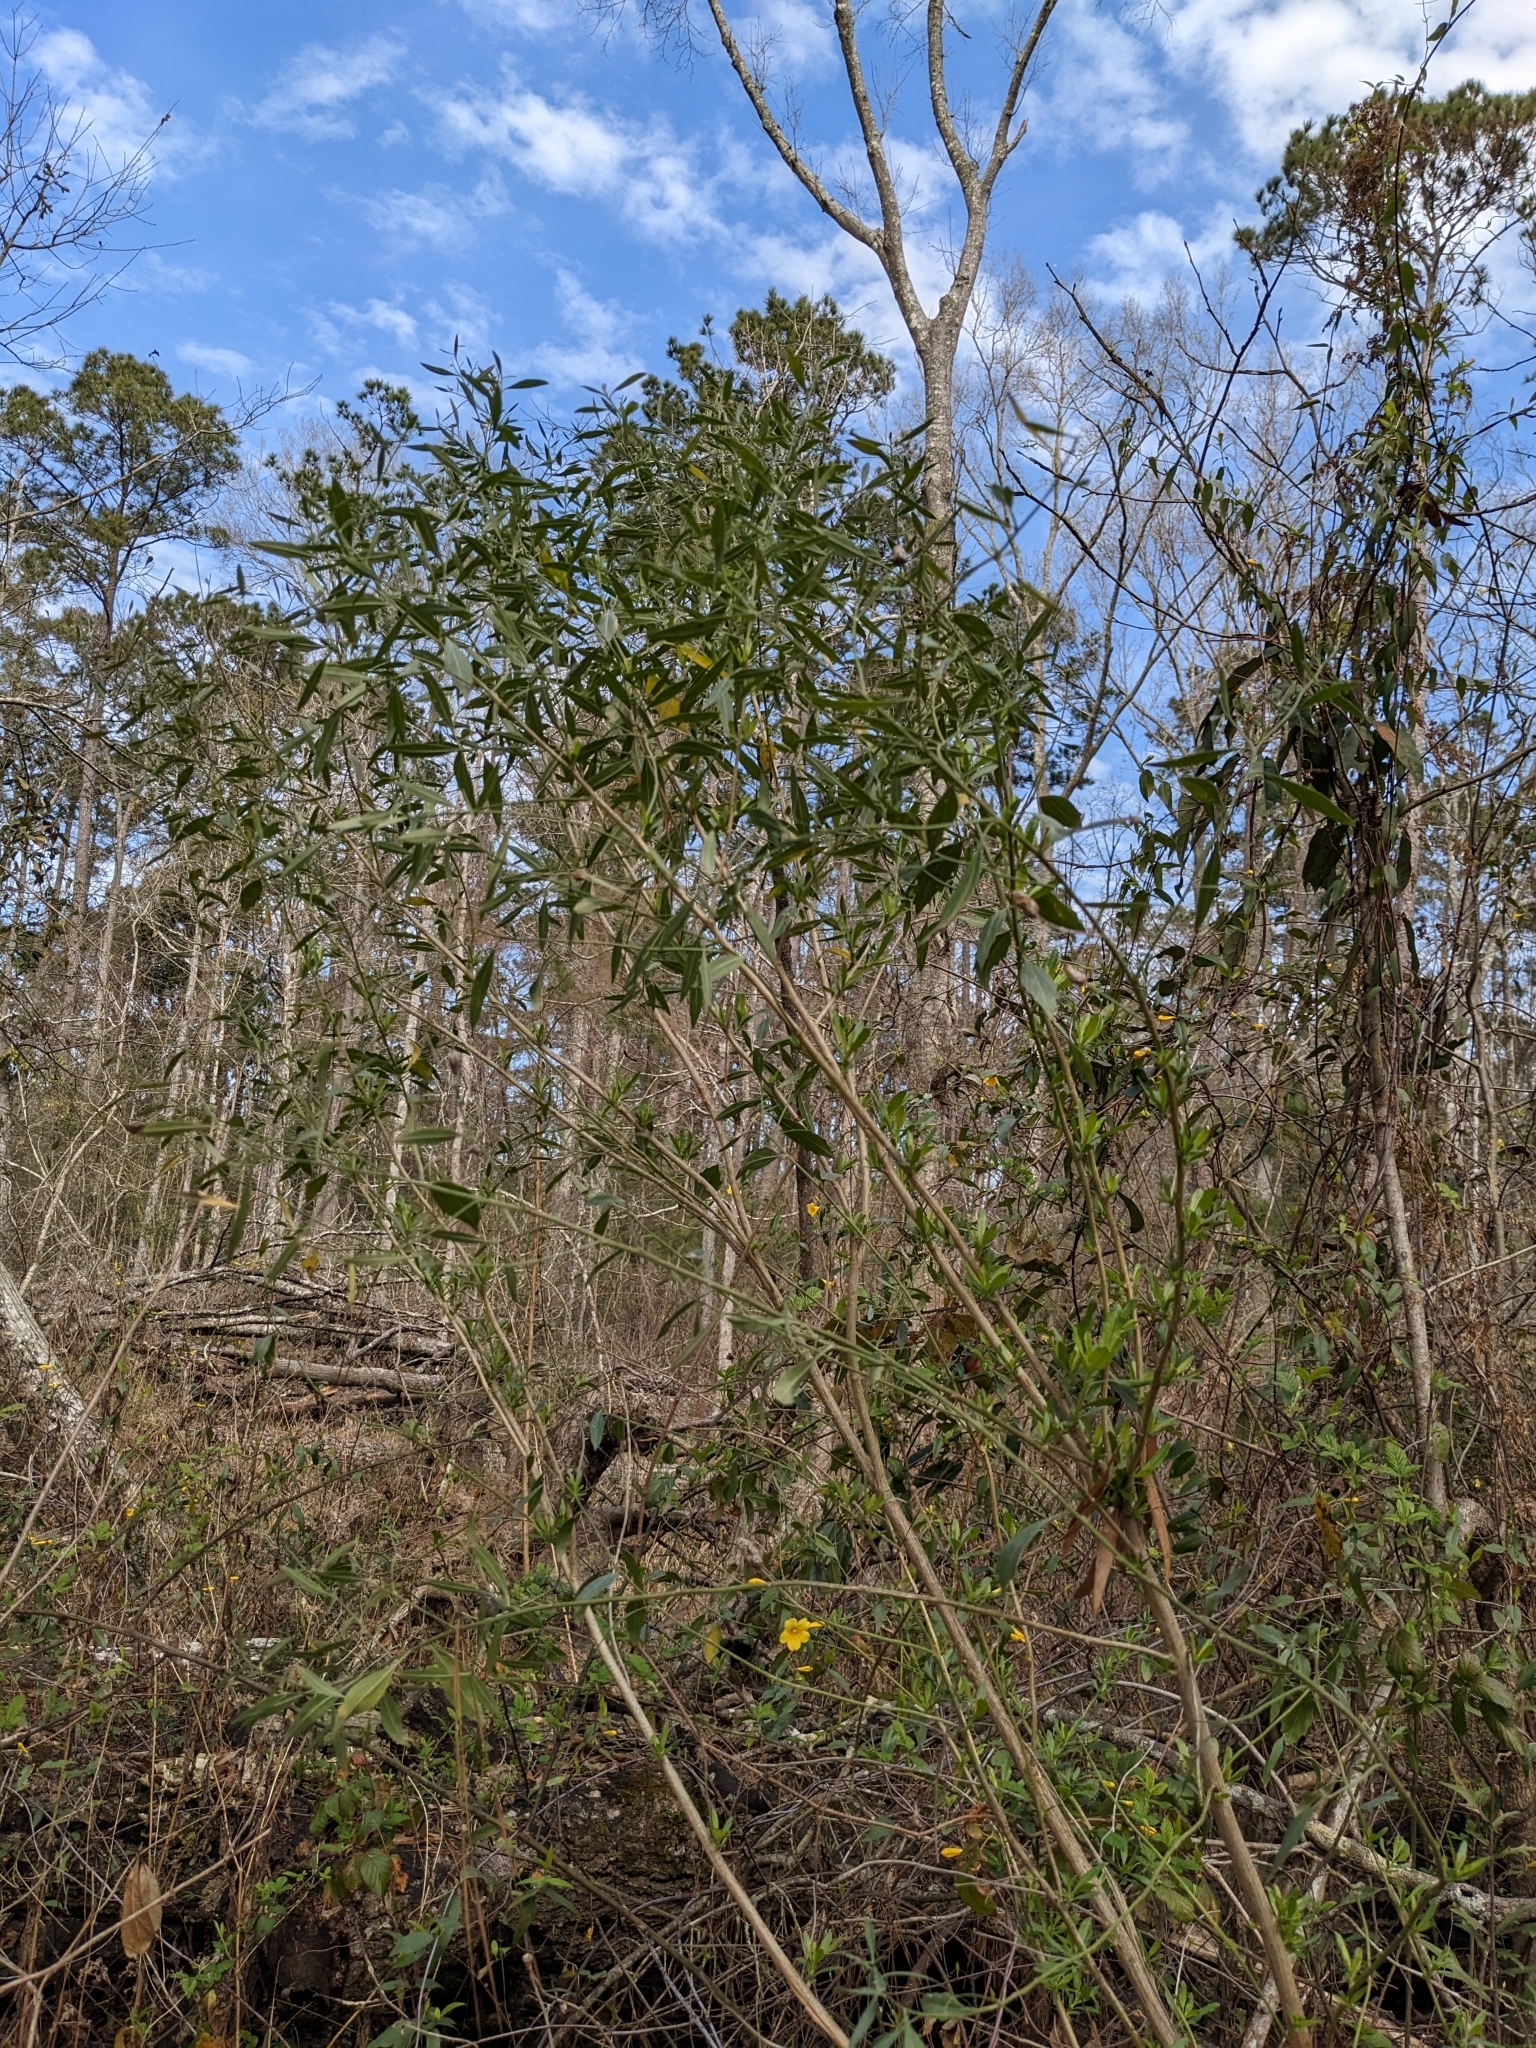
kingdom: Plantae
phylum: Tracheophyta
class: Magnoliopsida
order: Asterales
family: Asteraceae
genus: Baccharis
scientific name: Baccharis halimifolia
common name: Eastern baccharis
